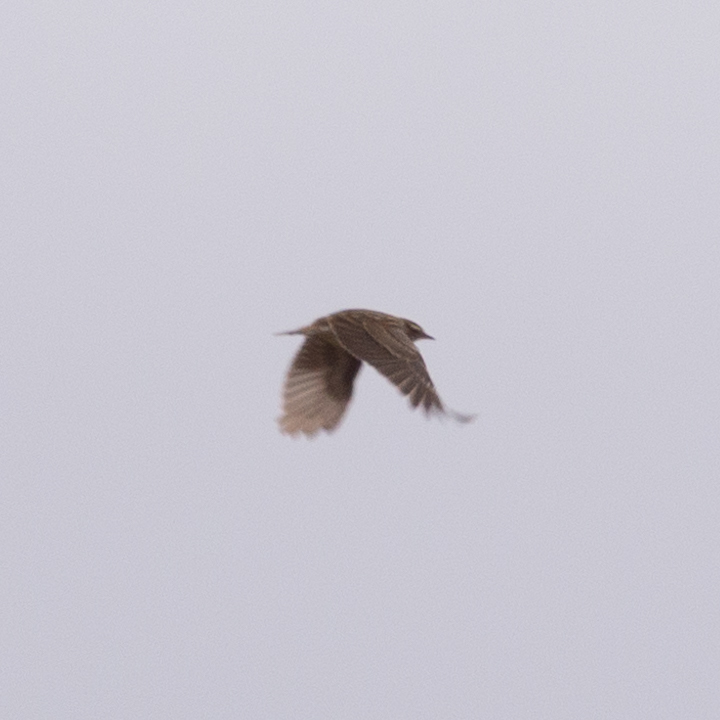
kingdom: Animalia
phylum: Chordata
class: Aves
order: Passeriformes
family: Alaudidae
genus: Lullula
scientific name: Lullula arborea
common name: Woodlark
